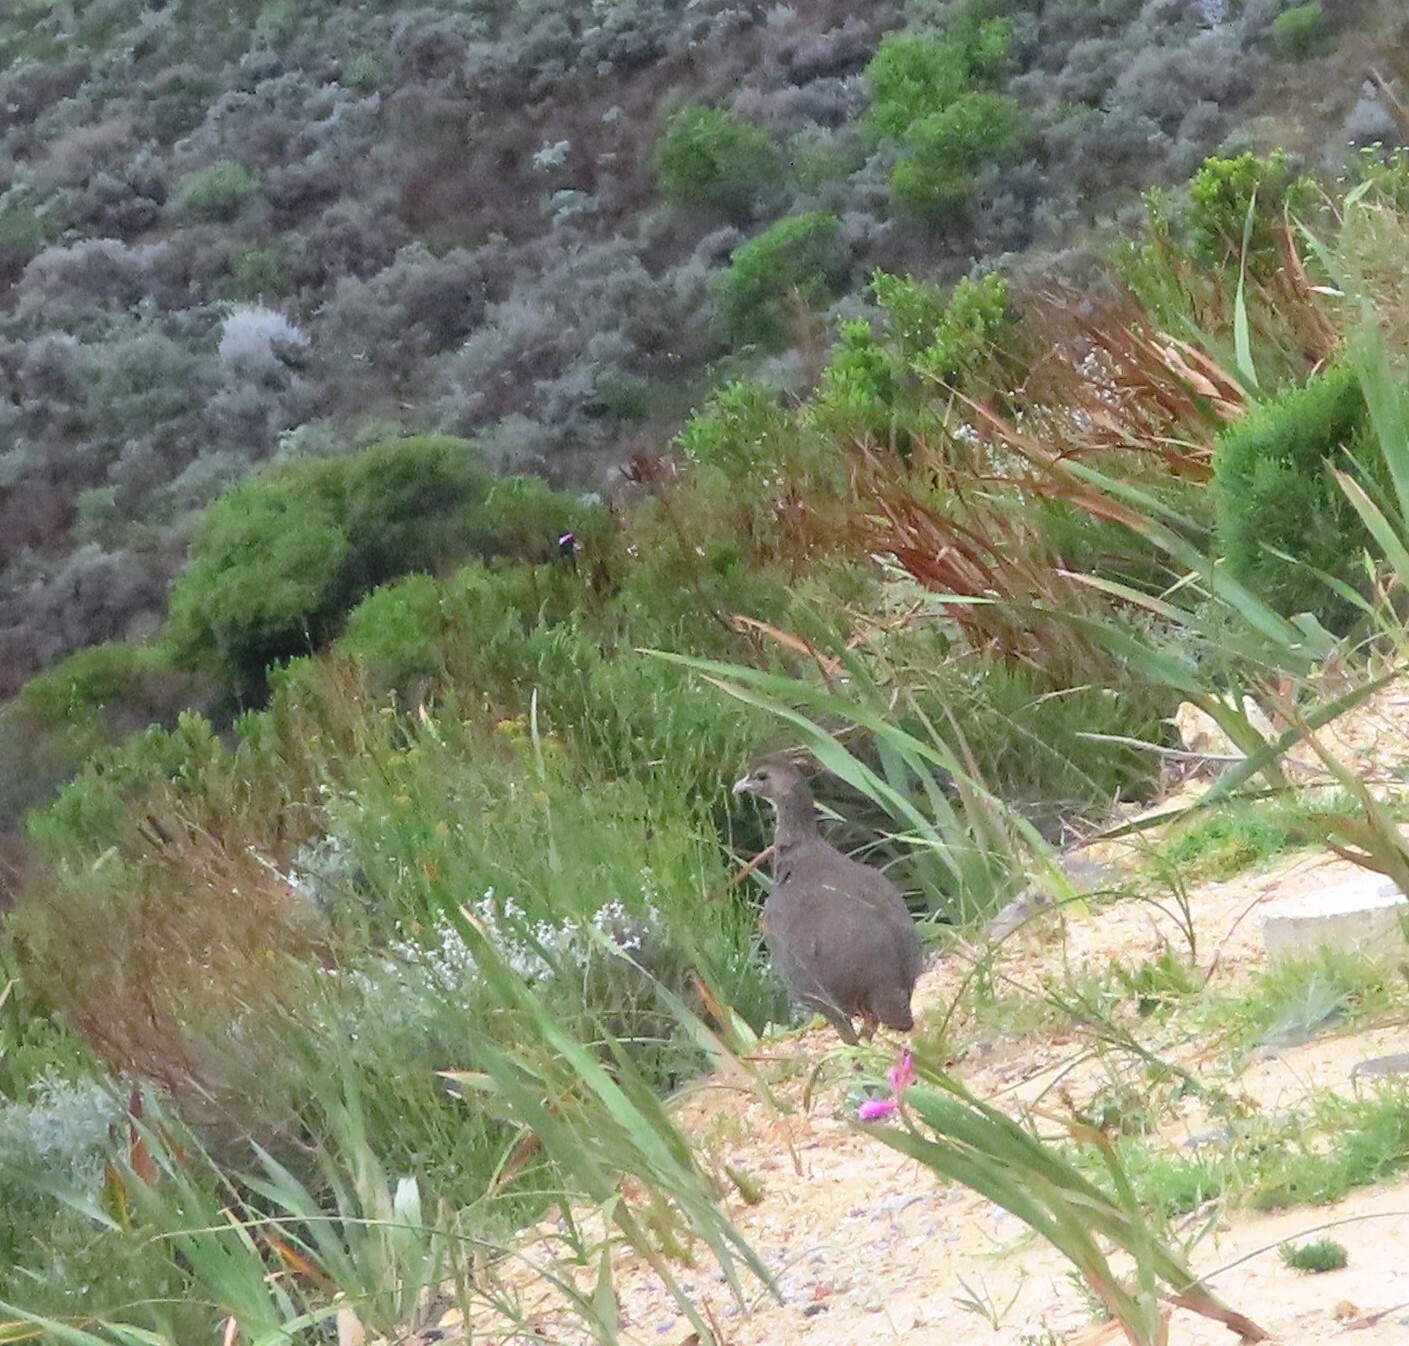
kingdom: Animalia
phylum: Chordata
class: Aves
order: Galliformes
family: Phasianidae
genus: Pternistis
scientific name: Pternistis capensis
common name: Cape spurfowl
